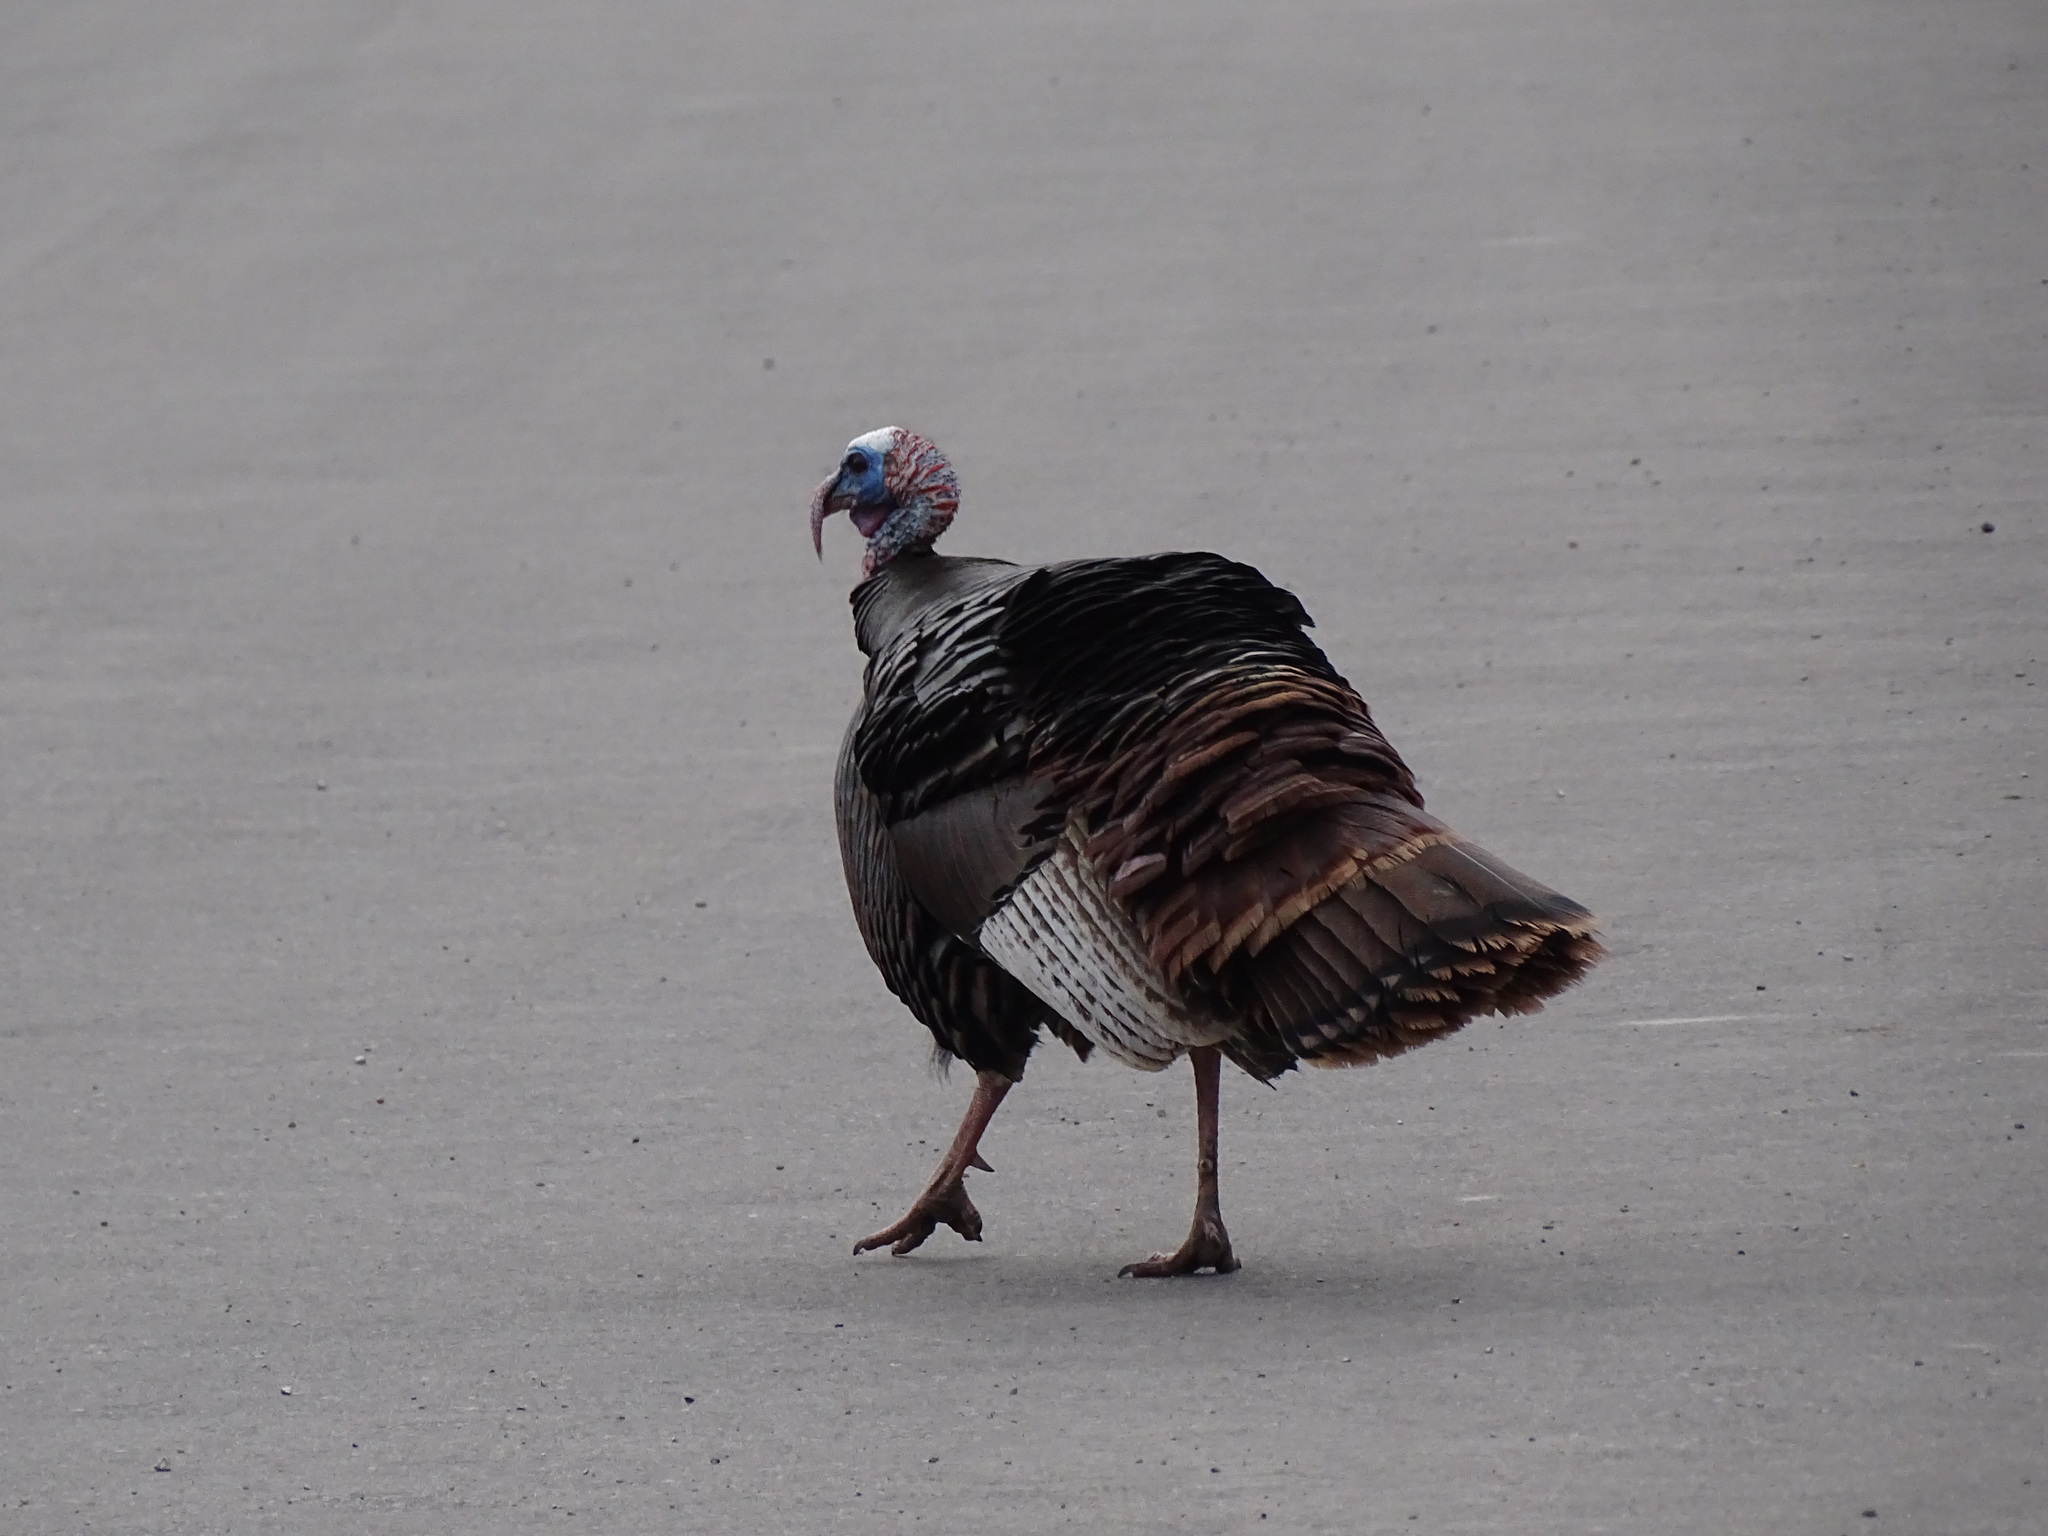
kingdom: Animalia
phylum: Chordata
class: Aves
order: Galliformes
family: Phasianidae
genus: Meleagris
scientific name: Meleagris gallopavo
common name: Wild turkey
